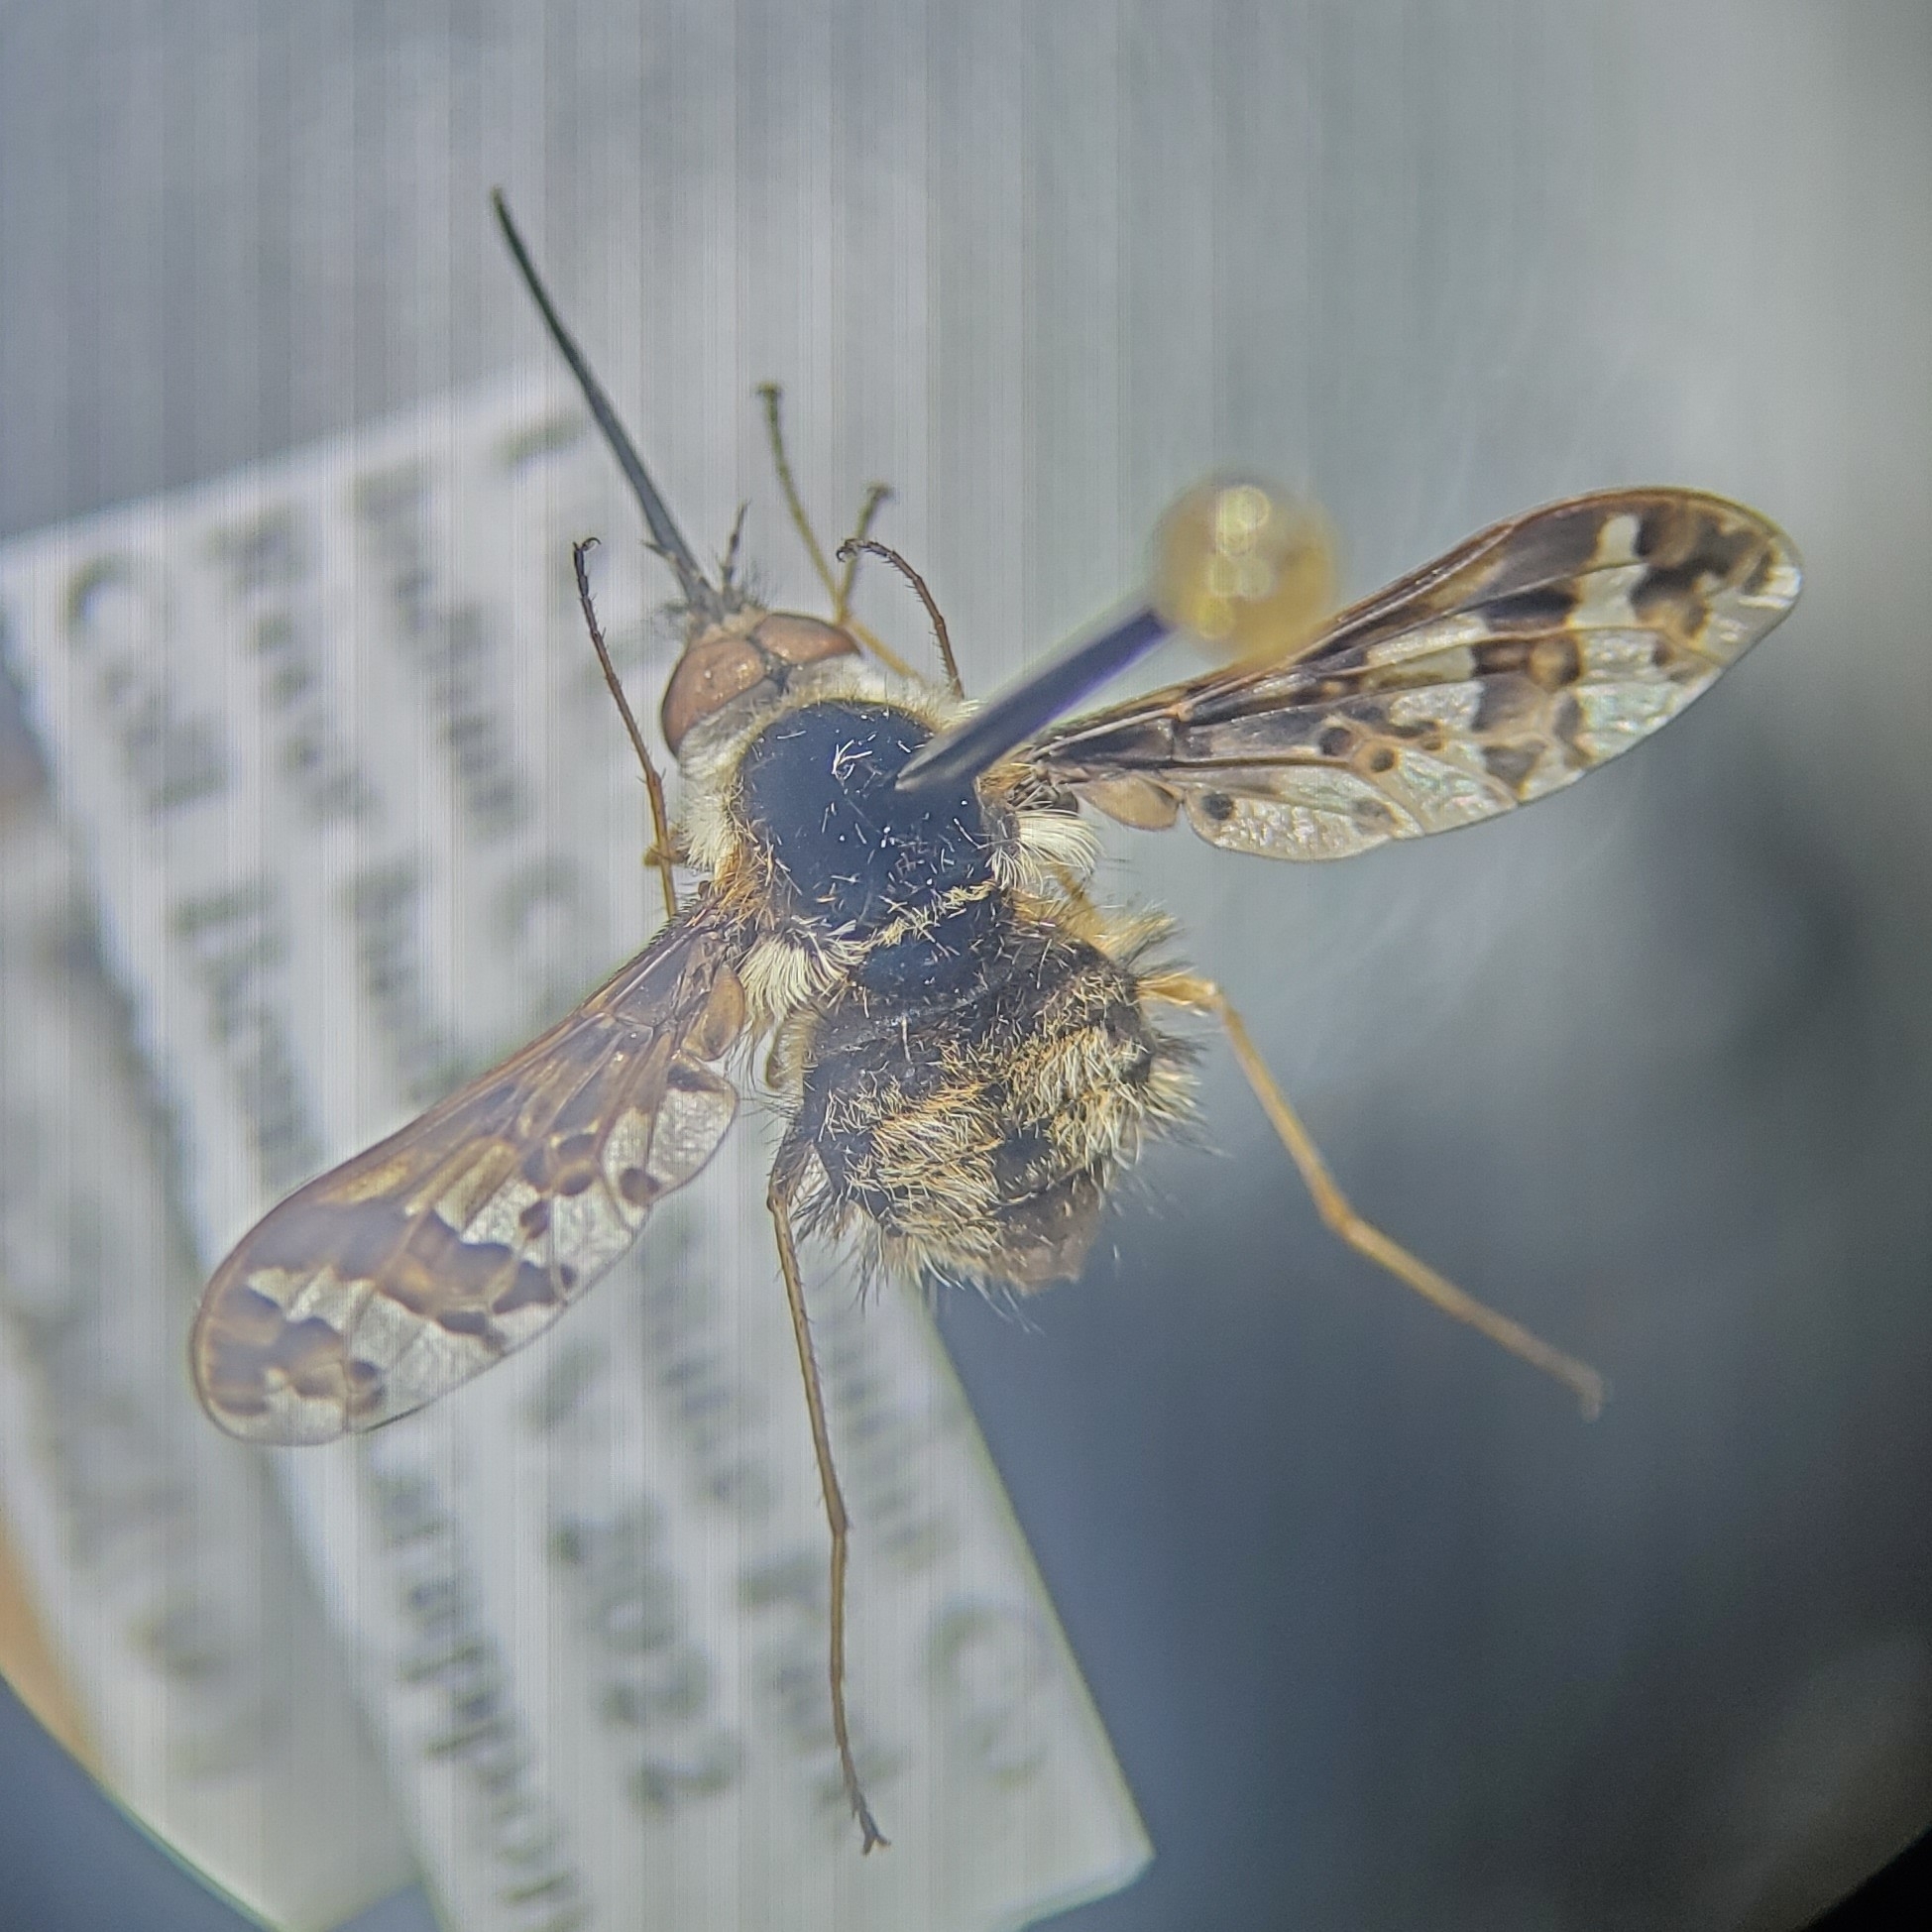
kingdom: Animalia
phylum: Arthropoda
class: Insecta
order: Diptera
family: Bombyliidae
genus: Bombylius
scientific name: Bombylius pulchellus
